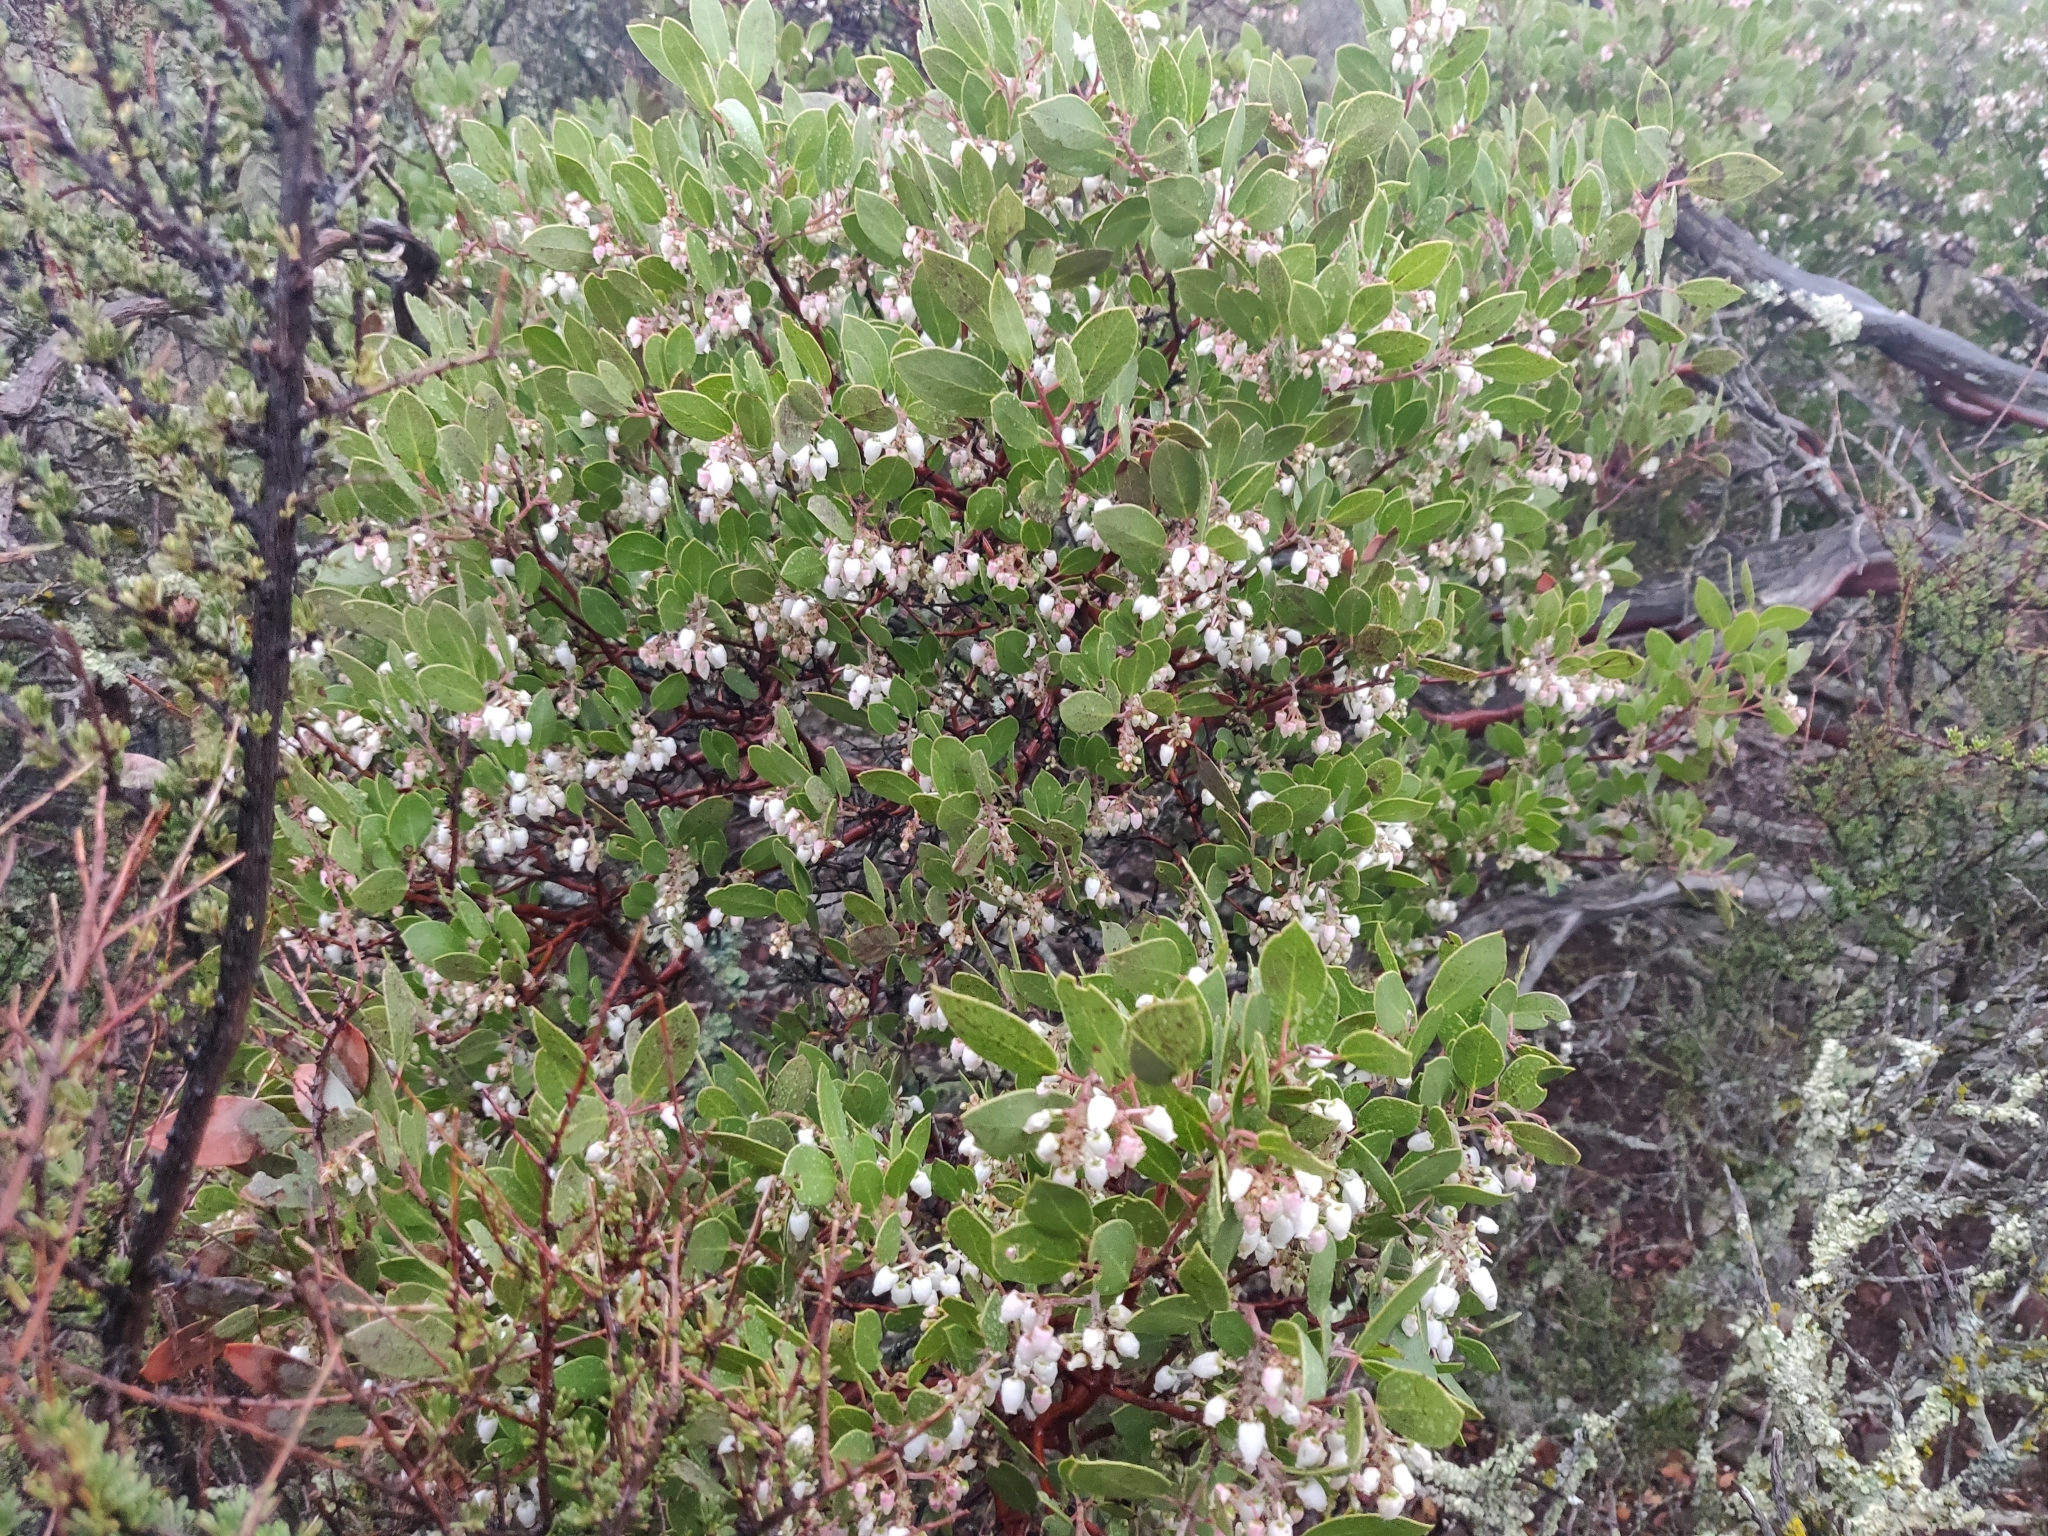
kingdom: Plantae
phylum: Tracheophyta
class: Magnoliopsida
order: Ericales
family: Ericaceae
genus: Arctostaphylos
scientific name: Arctostaphylos manzanita
